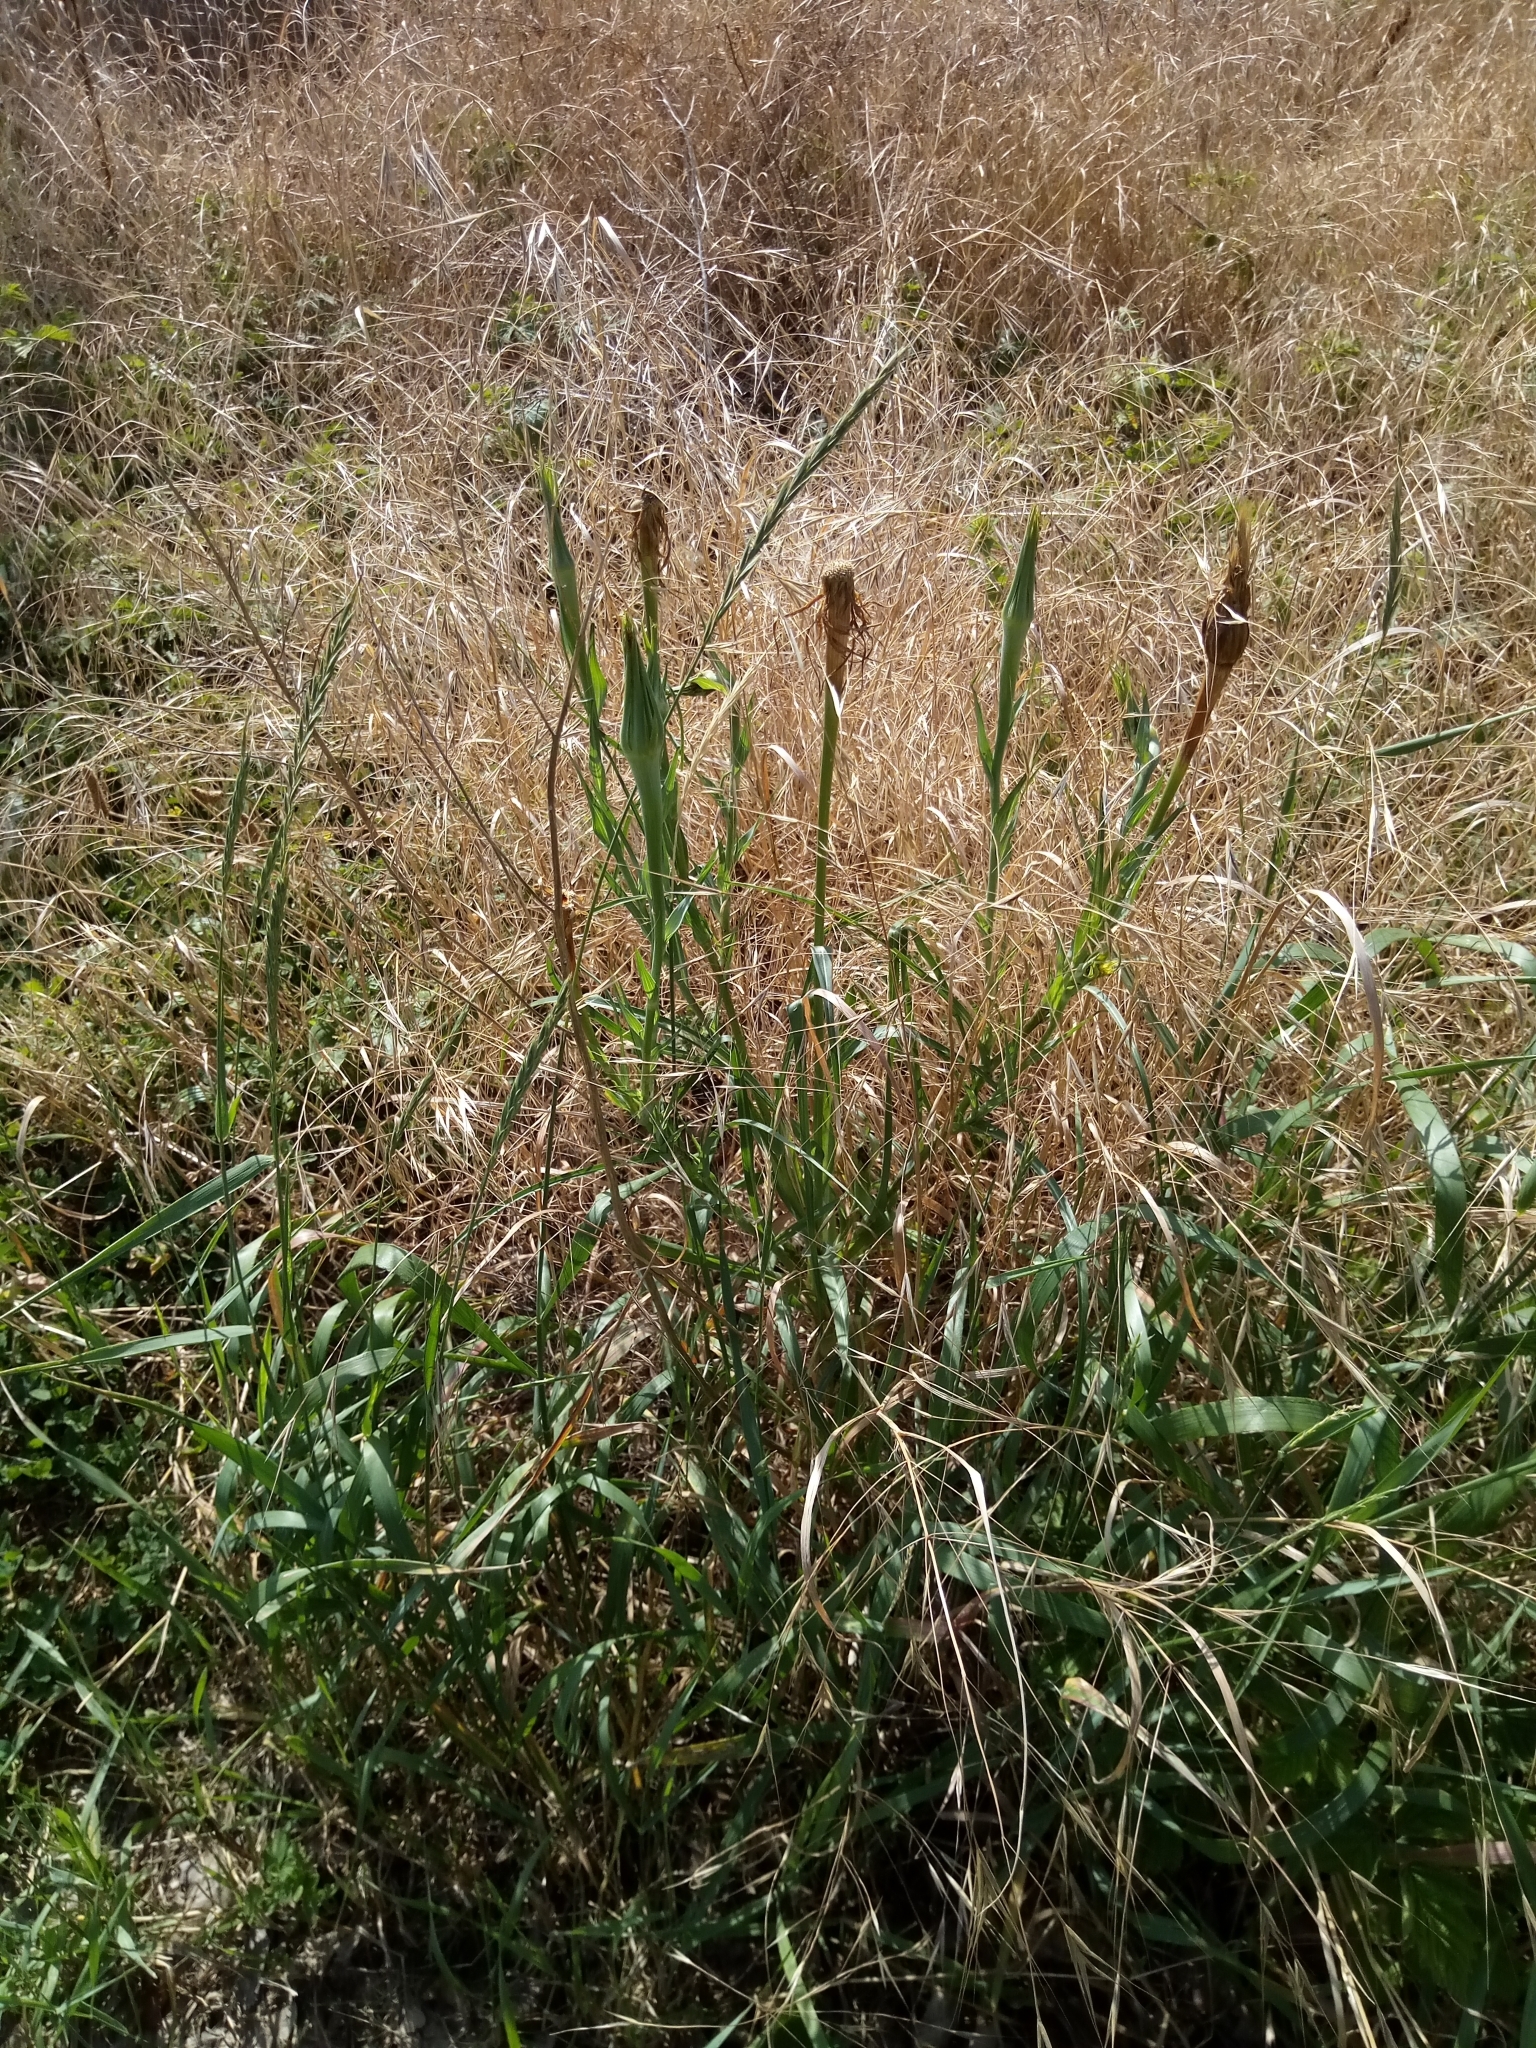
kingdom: Plantae
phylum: Tracheophyta
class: Magnoliopsida
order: Asterales
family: Asteraceae
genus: Tragopogon
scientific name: Tragopogon dubius
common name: Yellow salsify
